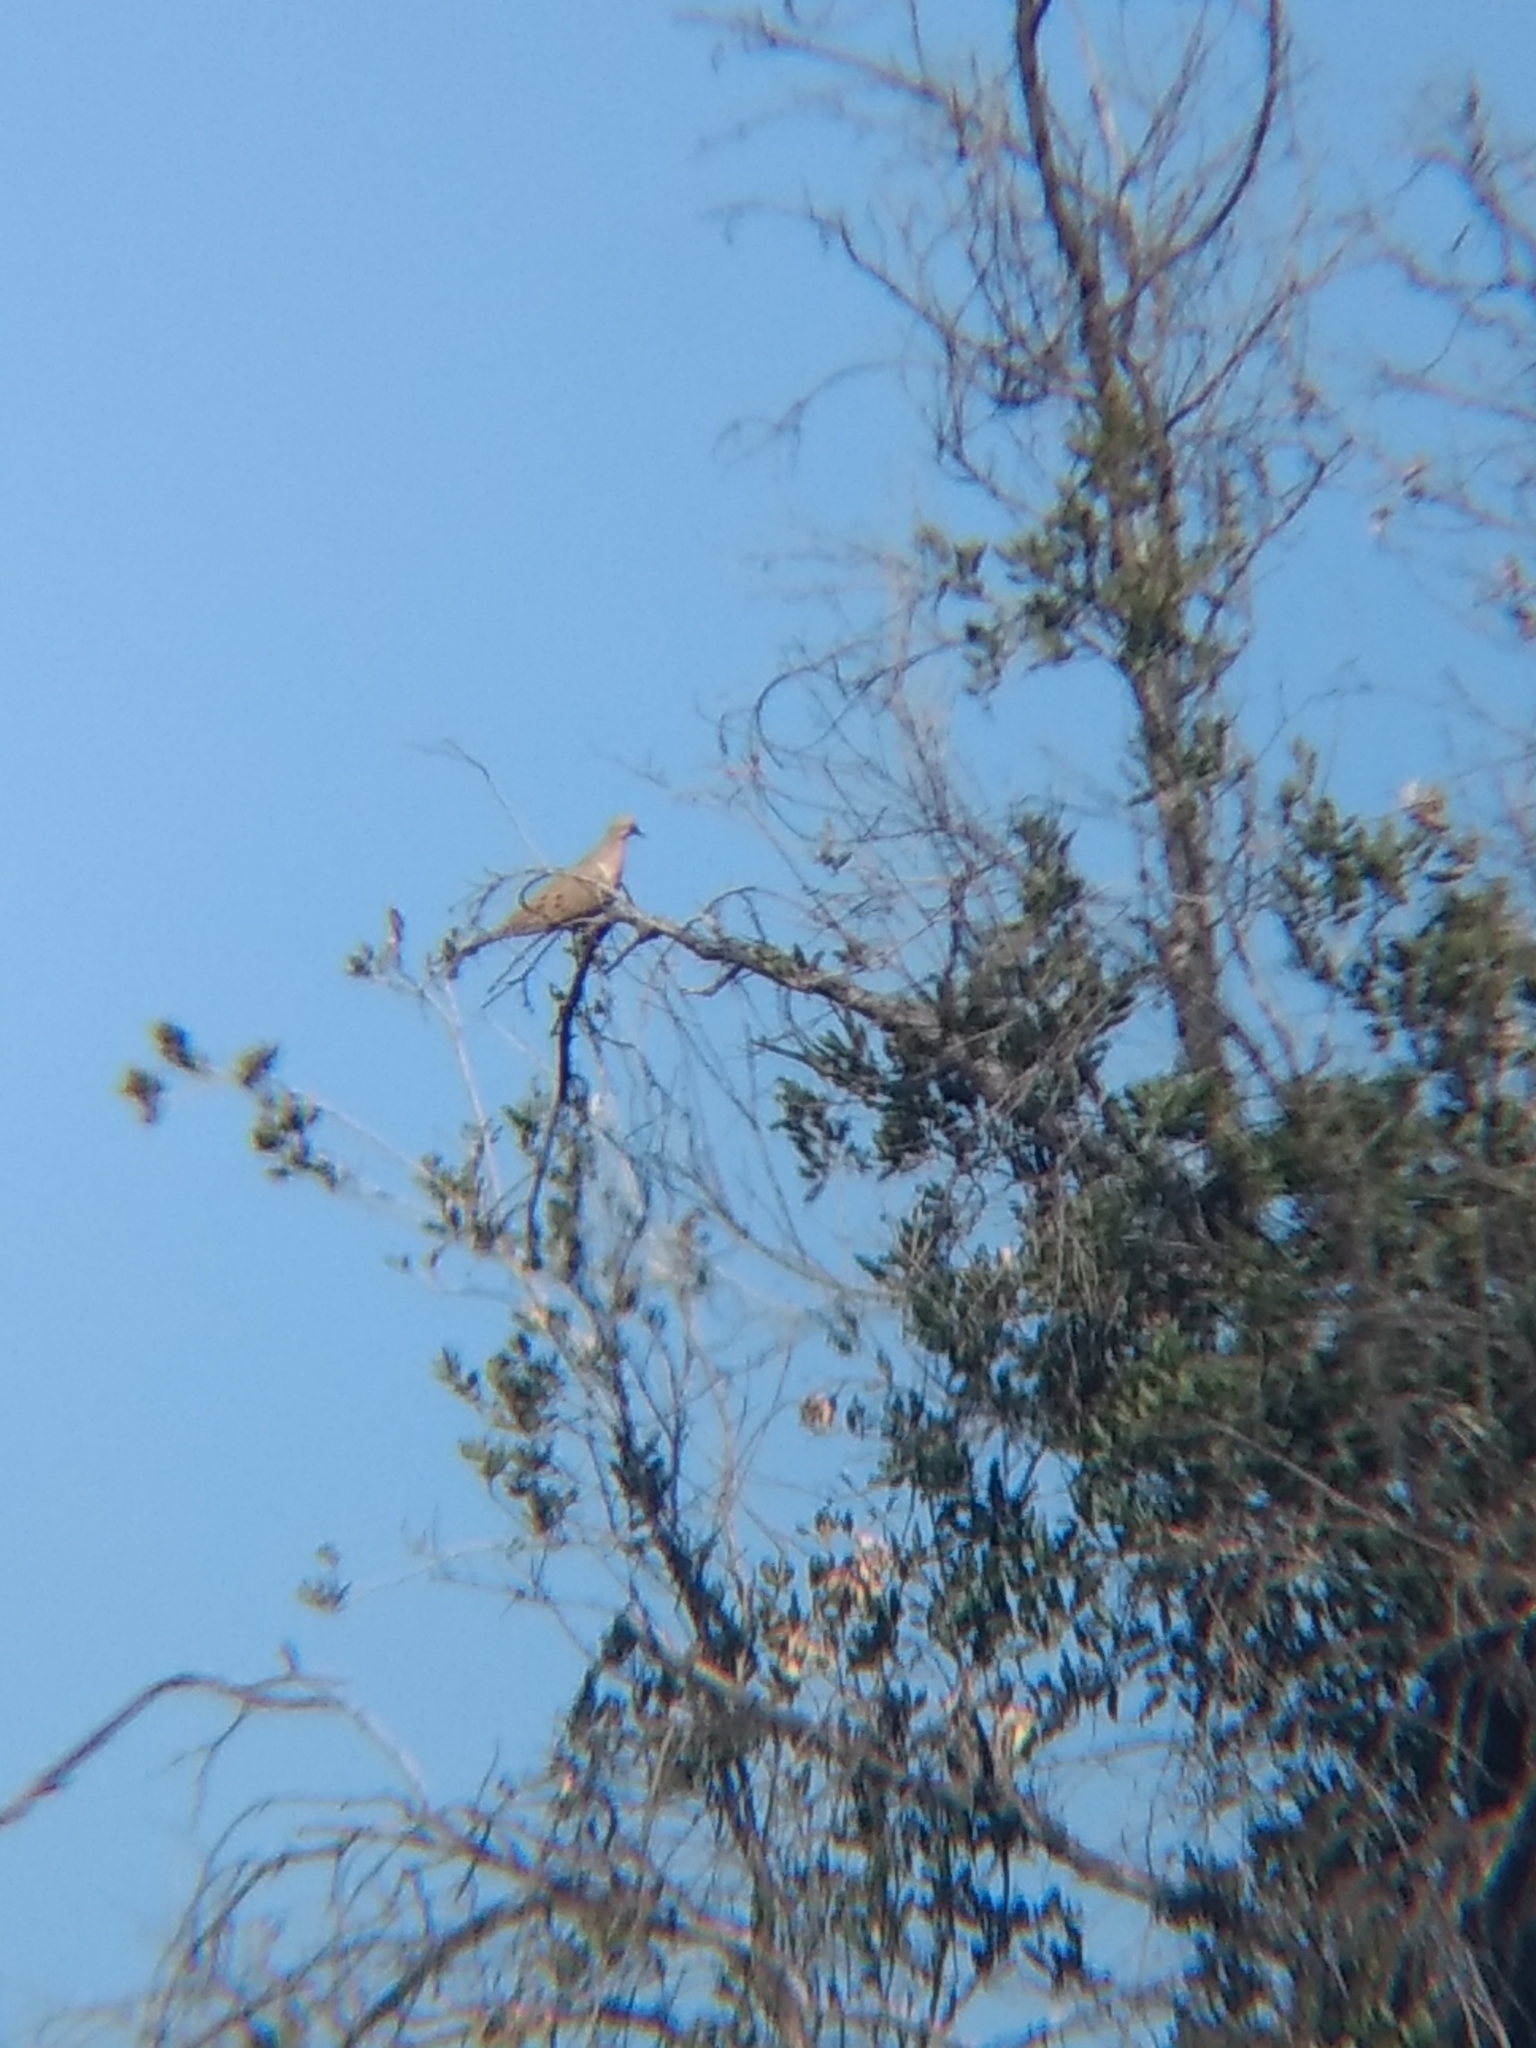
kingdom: Animalia
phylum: Chordata
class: Aves
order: Columbiformes
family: Columbidae
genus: Zenaida
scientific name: Zenaida macroura
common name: Mourning dove
